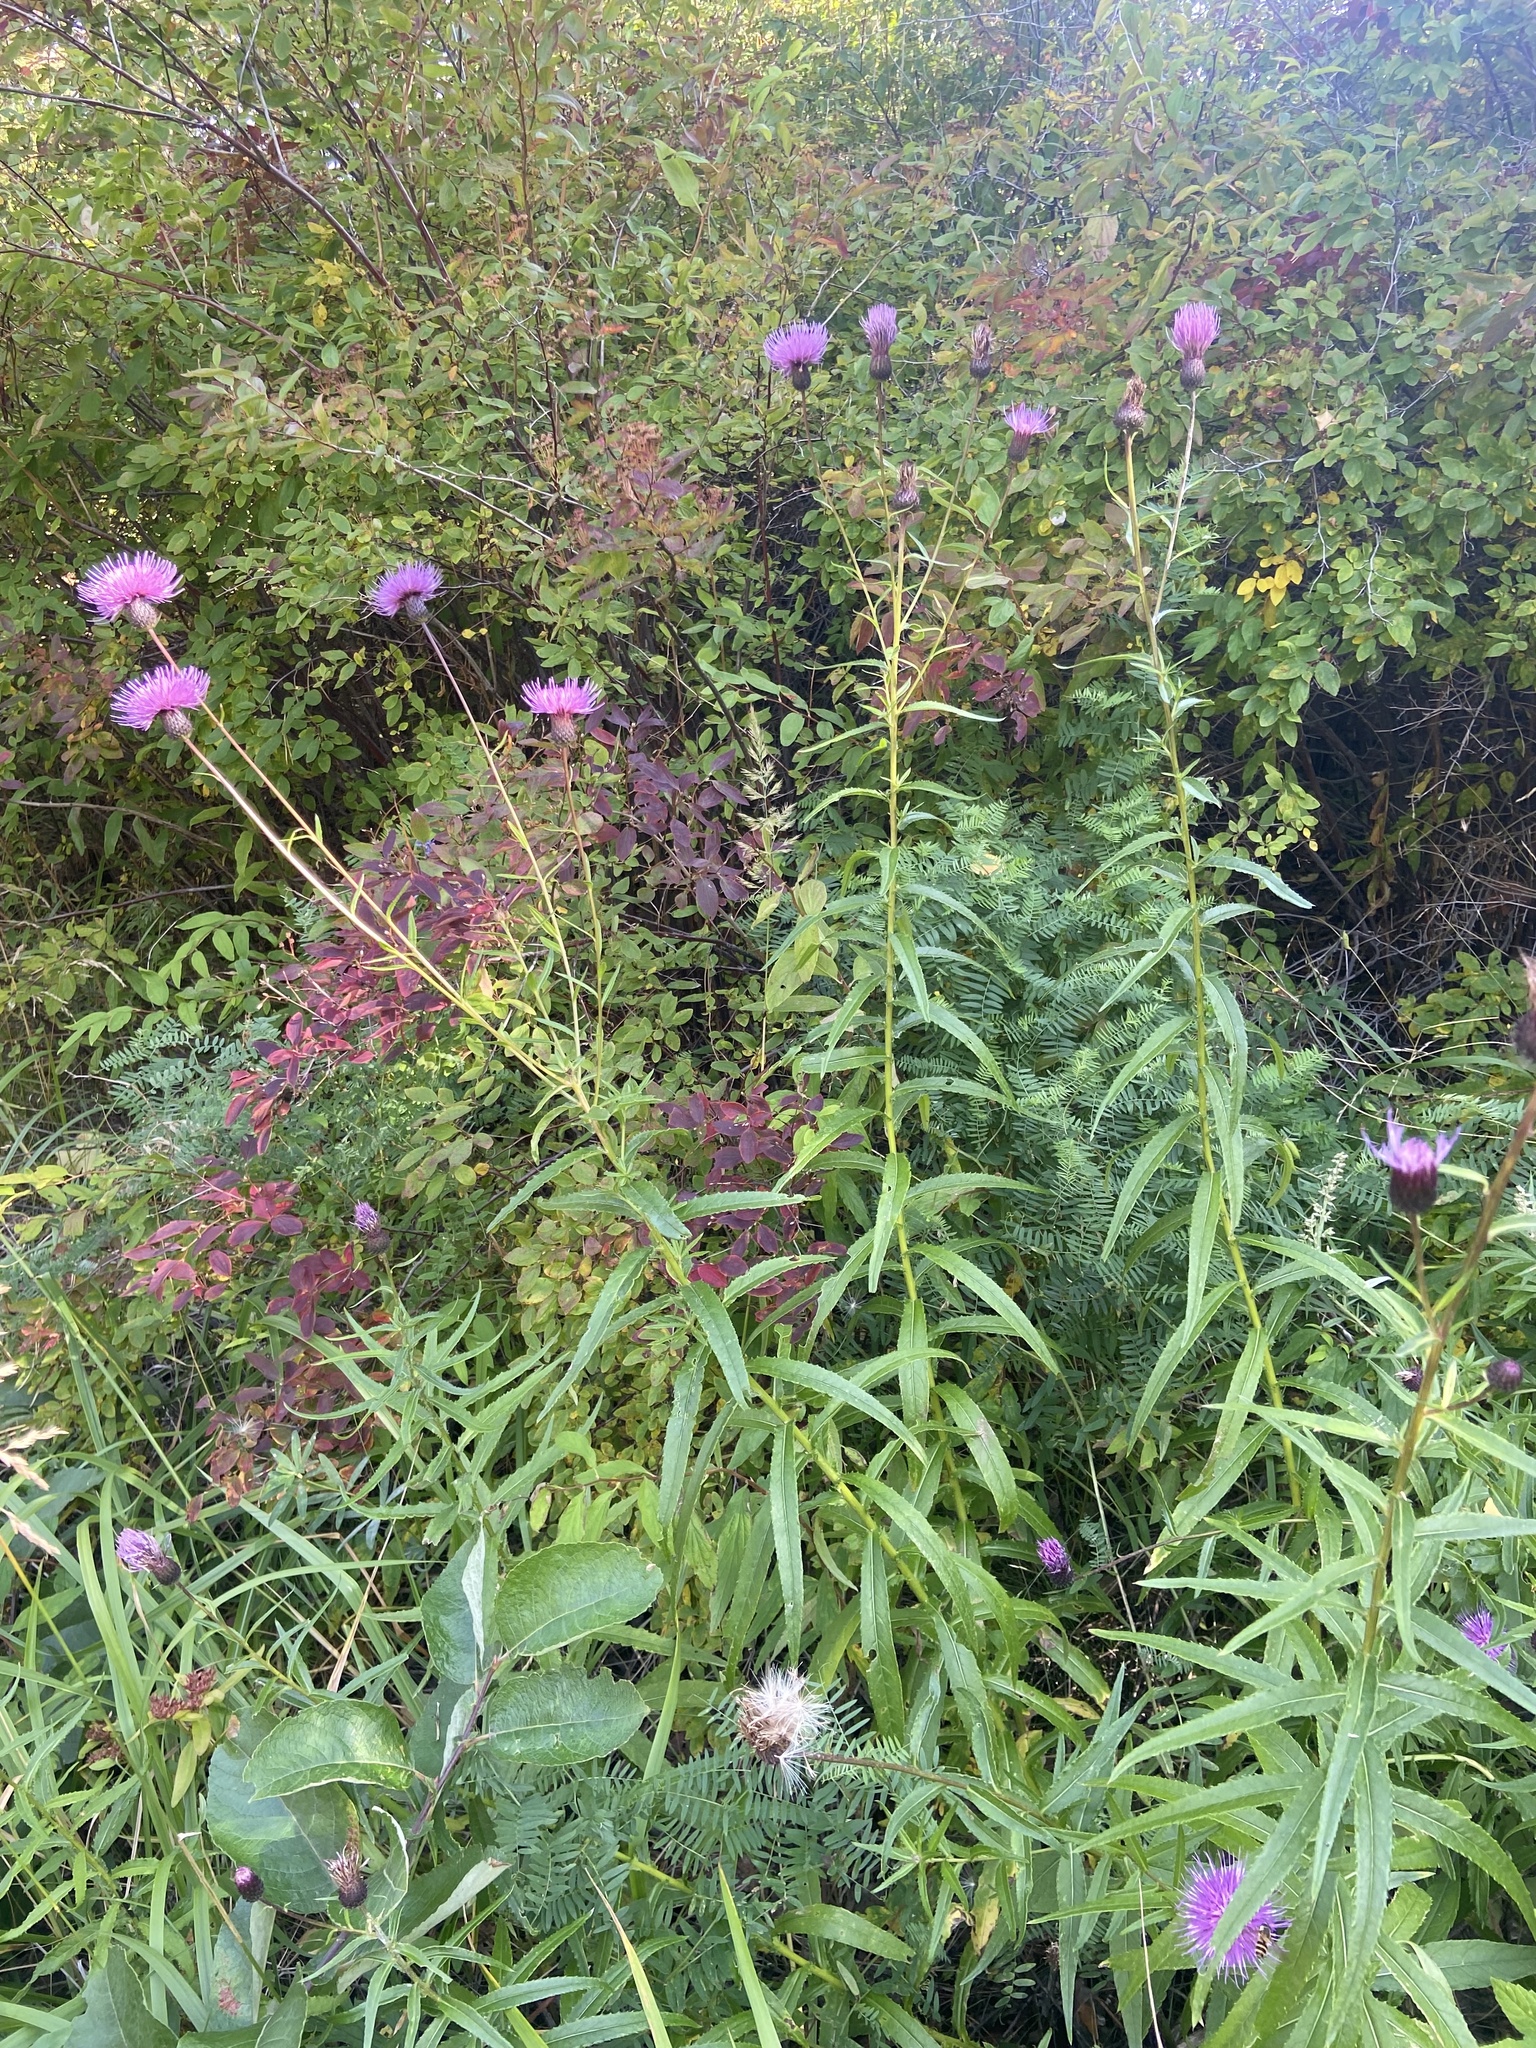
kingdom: Plantae
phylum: Tracheophyta
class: Magnoliopsida
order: Asterales
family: Asteraceae
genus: Cirsium
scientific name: Cirsium serratuloides
